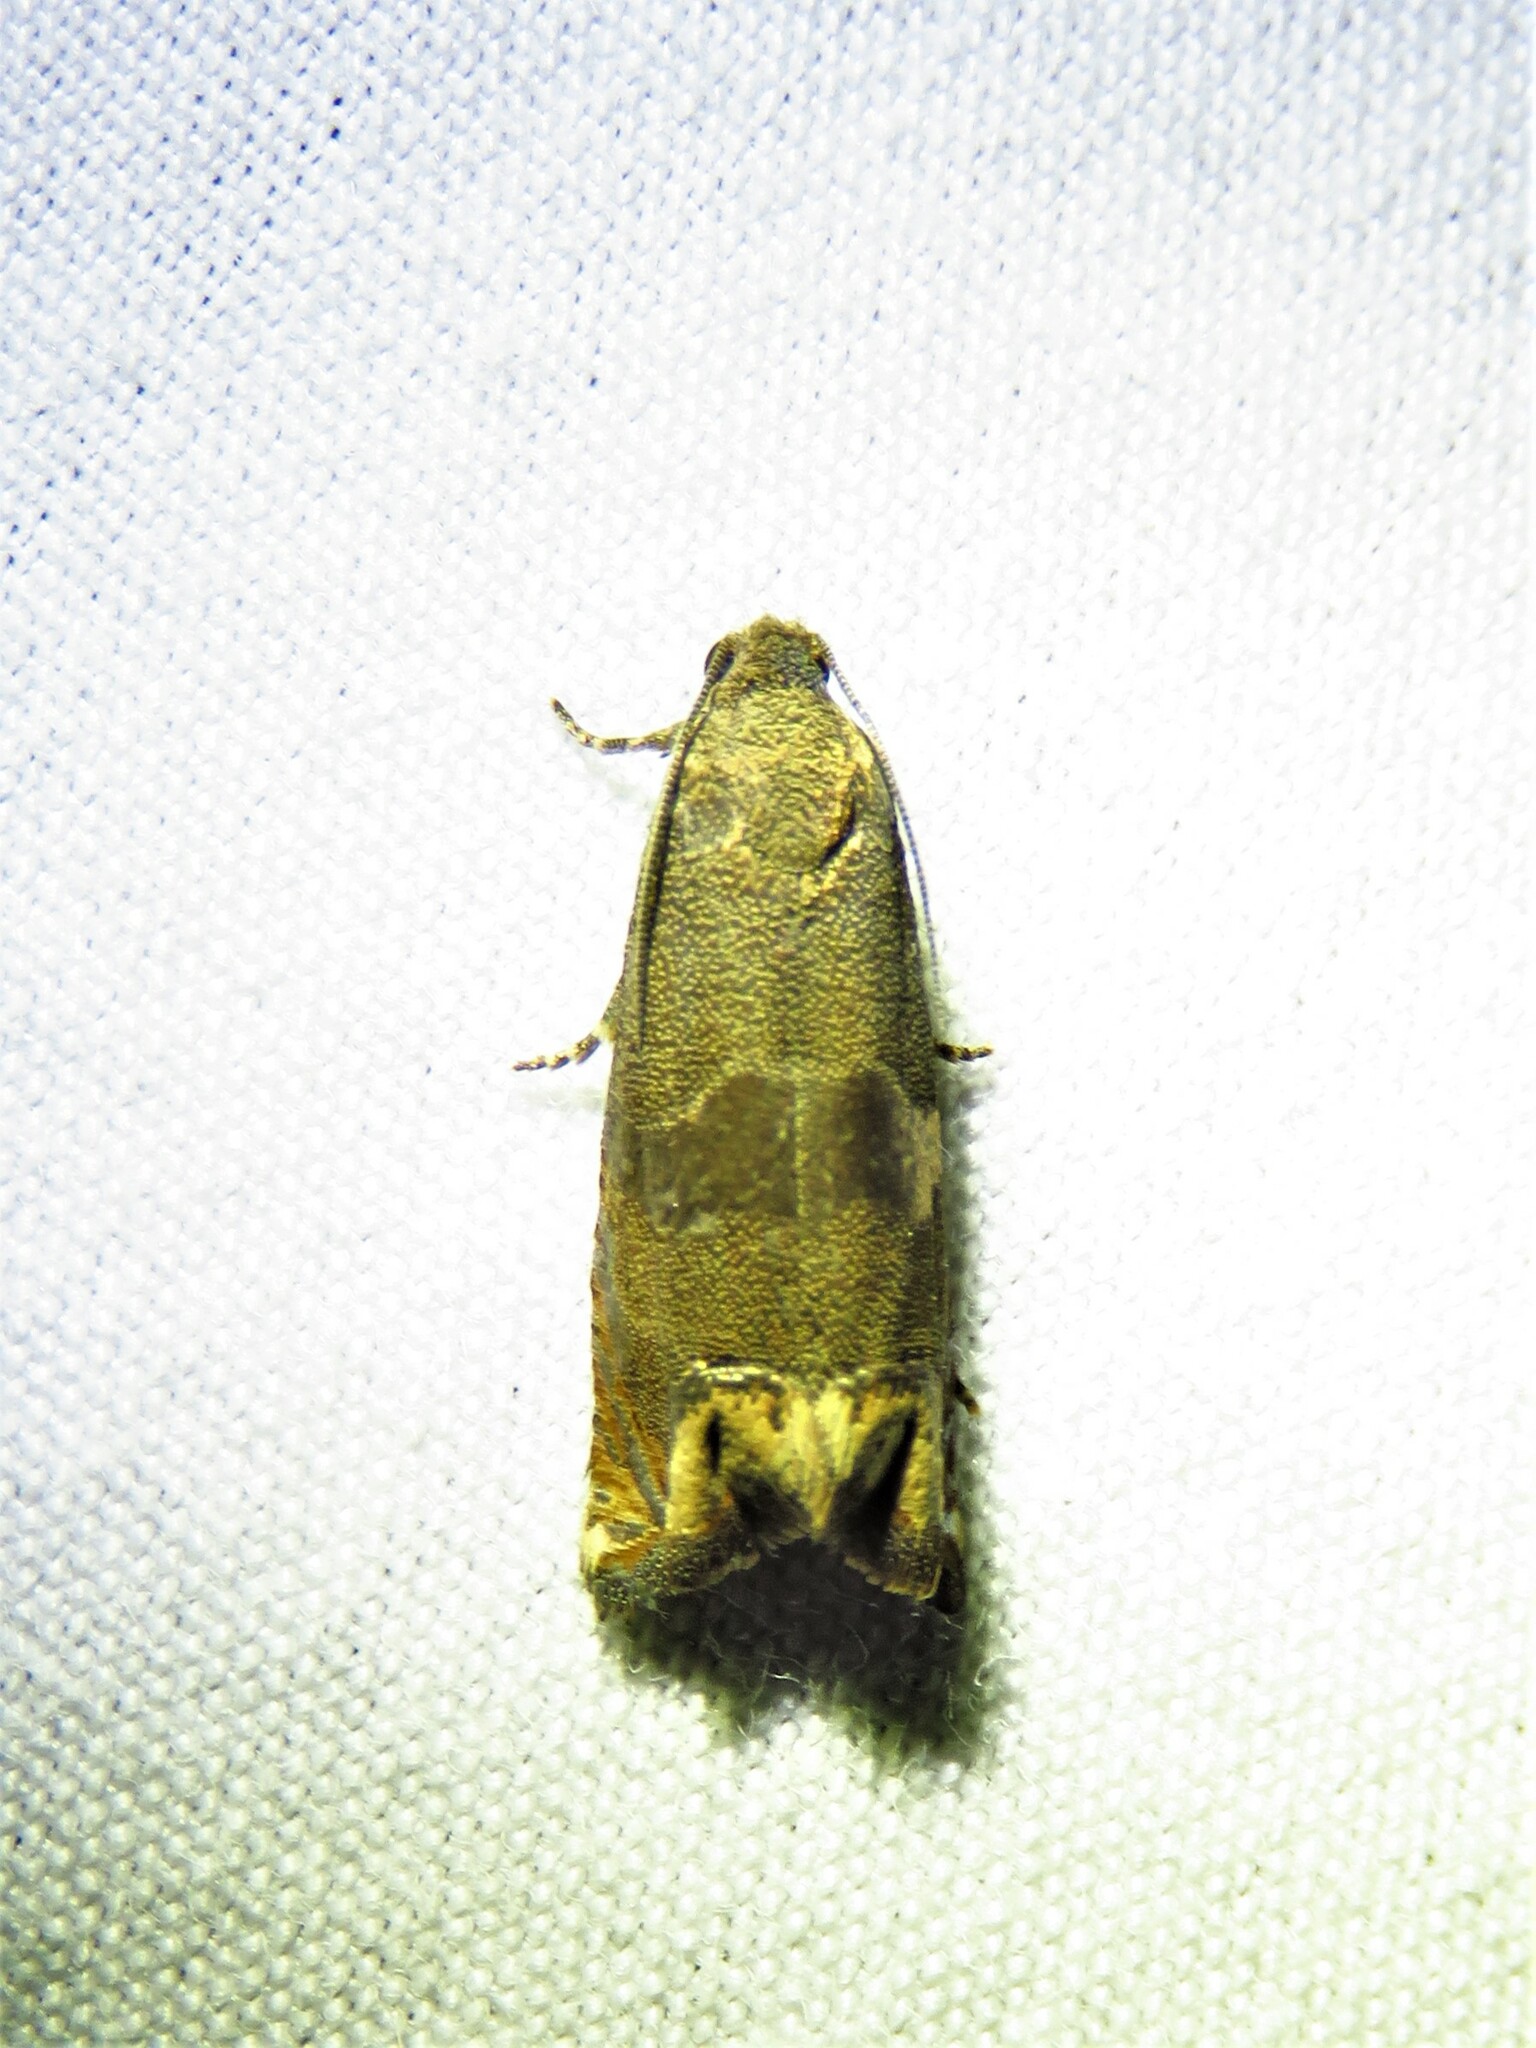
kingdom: Animalia
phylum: Arthropoda
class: Insecta
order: Lepidoptera
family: Tortricidae
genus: Epiblema
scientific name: Epiblema strenuana
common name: Ragweed borer moth
